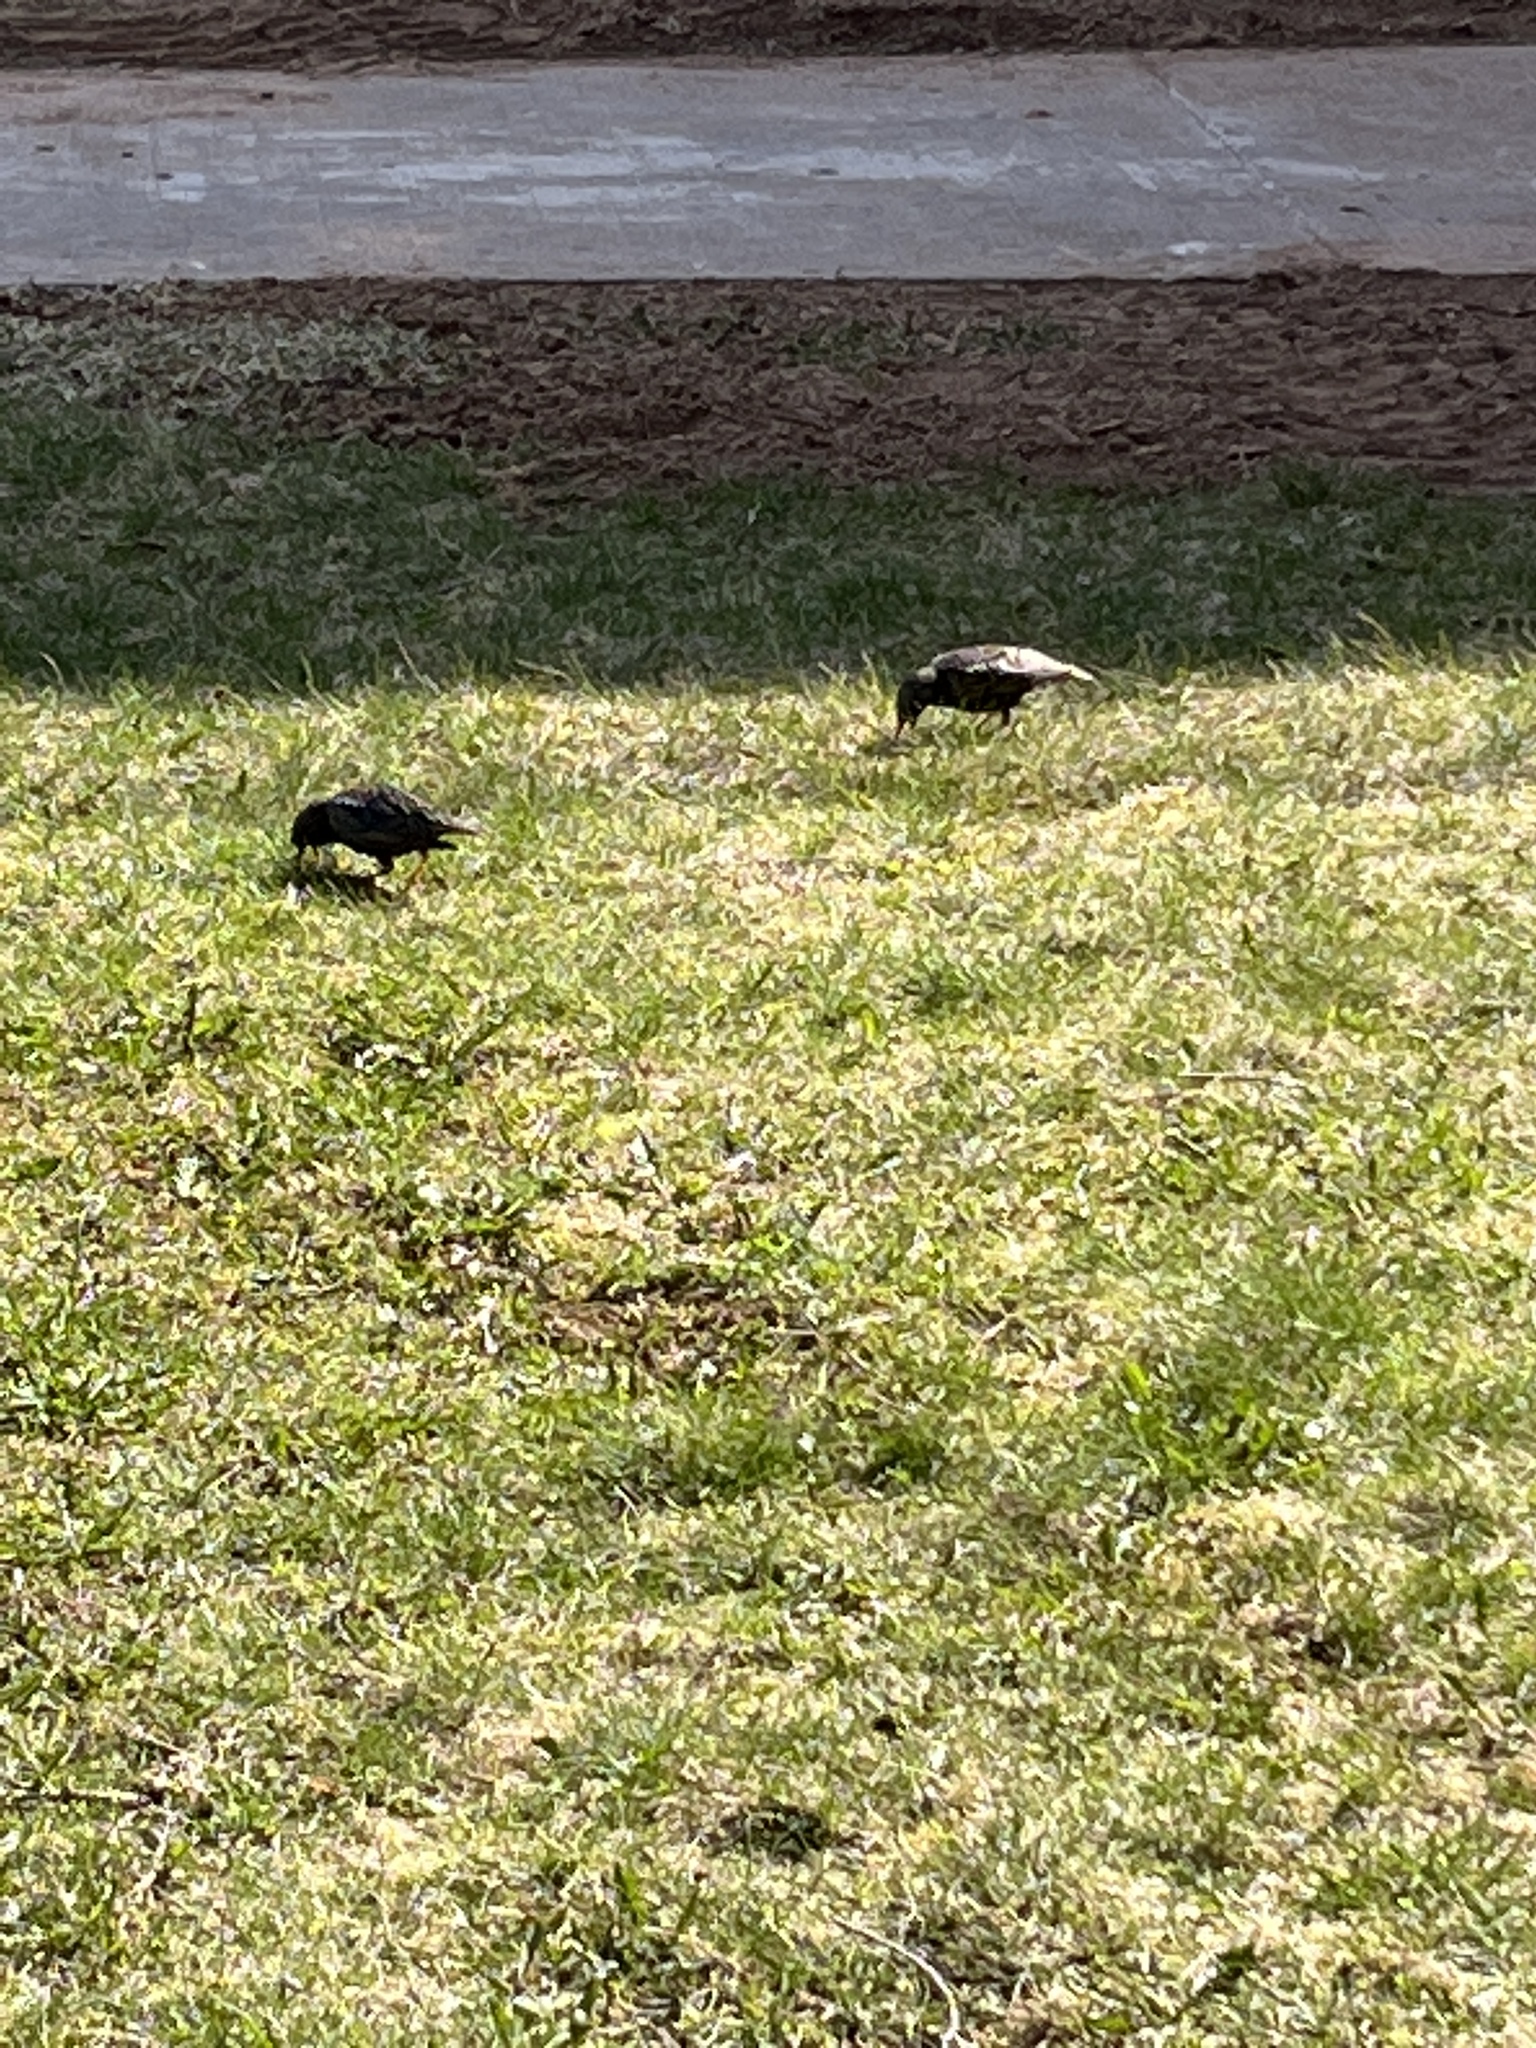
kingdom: Animalia
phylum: Chordata
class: Aves
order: Passeriformes
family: Sturnidae
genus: Sturnus
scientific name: Sturnus vulgaris
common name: Common starling
